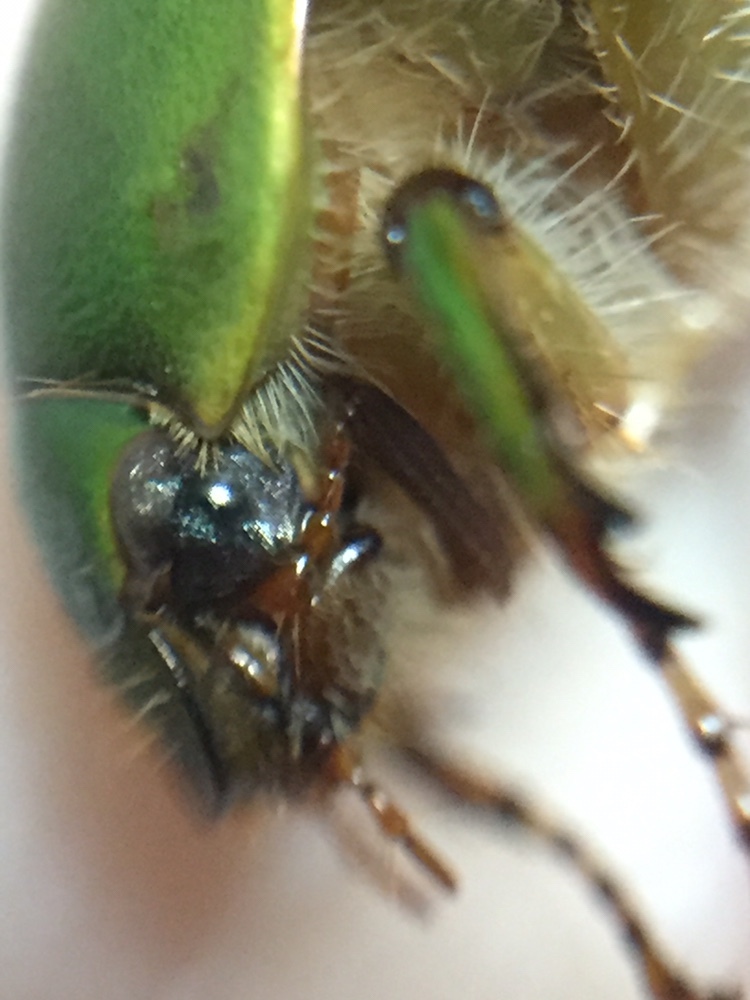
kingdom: Animalia
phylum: Arthropoda
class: Insecta
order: Coleoptera
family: Scarabaeidae
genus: Stethaspis
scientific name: Stethaspis longicornis
